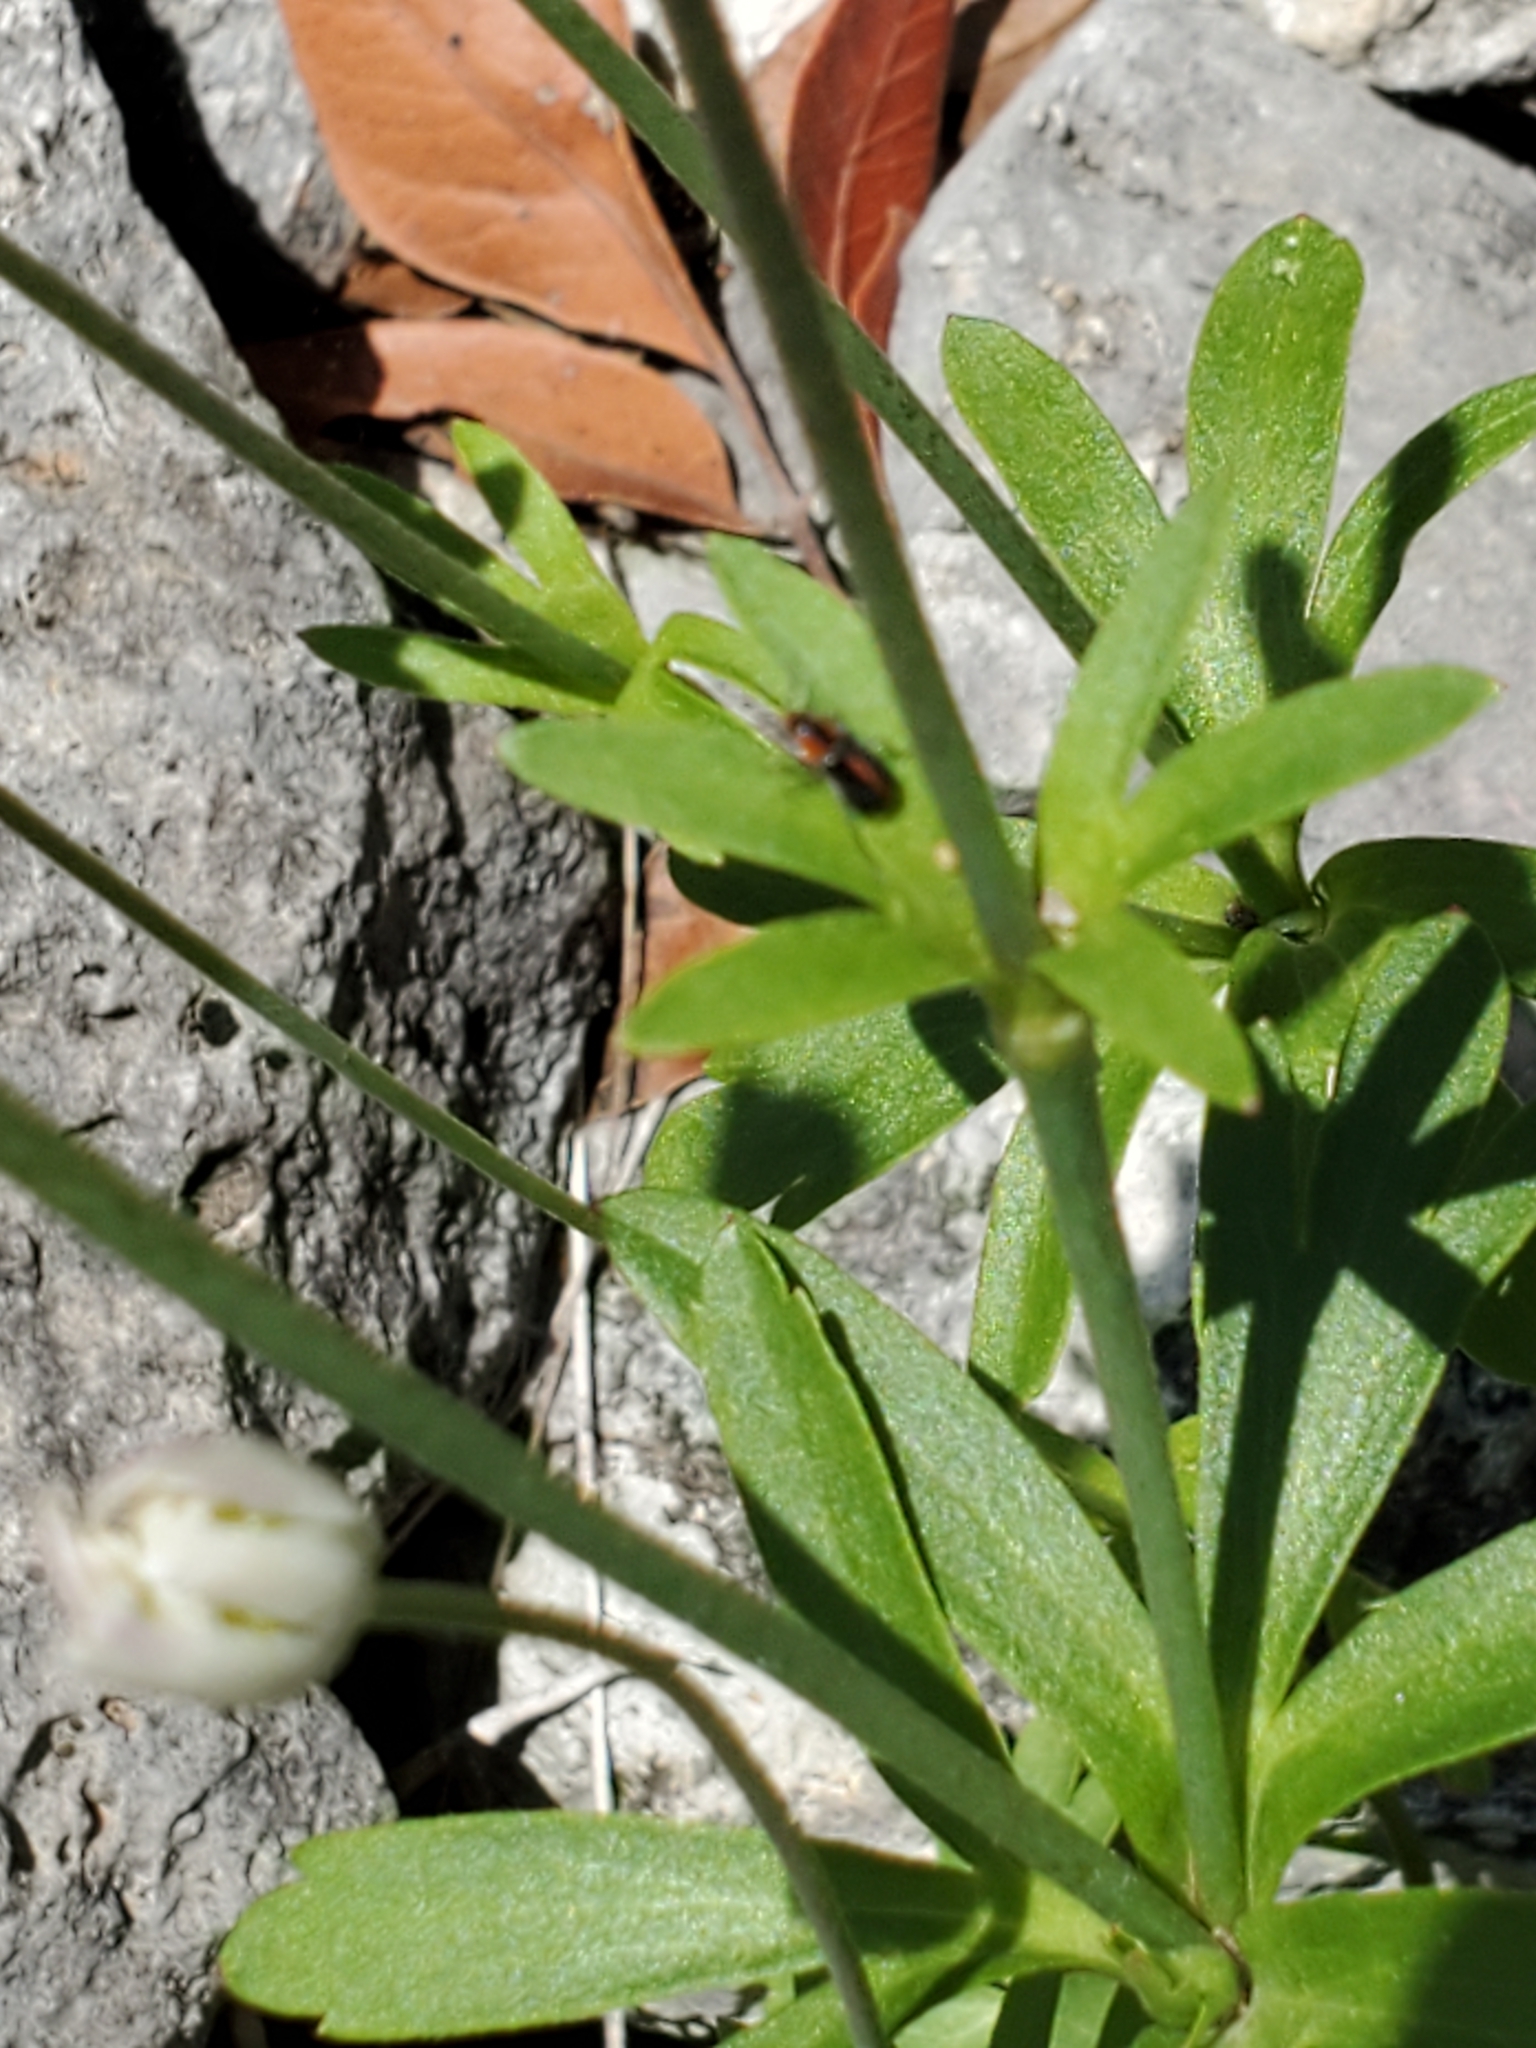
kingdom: Plantae
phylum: Tracheophyta
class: Magnoliopsida
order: Ranunculales
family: Ranunculaceae
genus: Anemone
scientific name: Anemone edwardsiana
